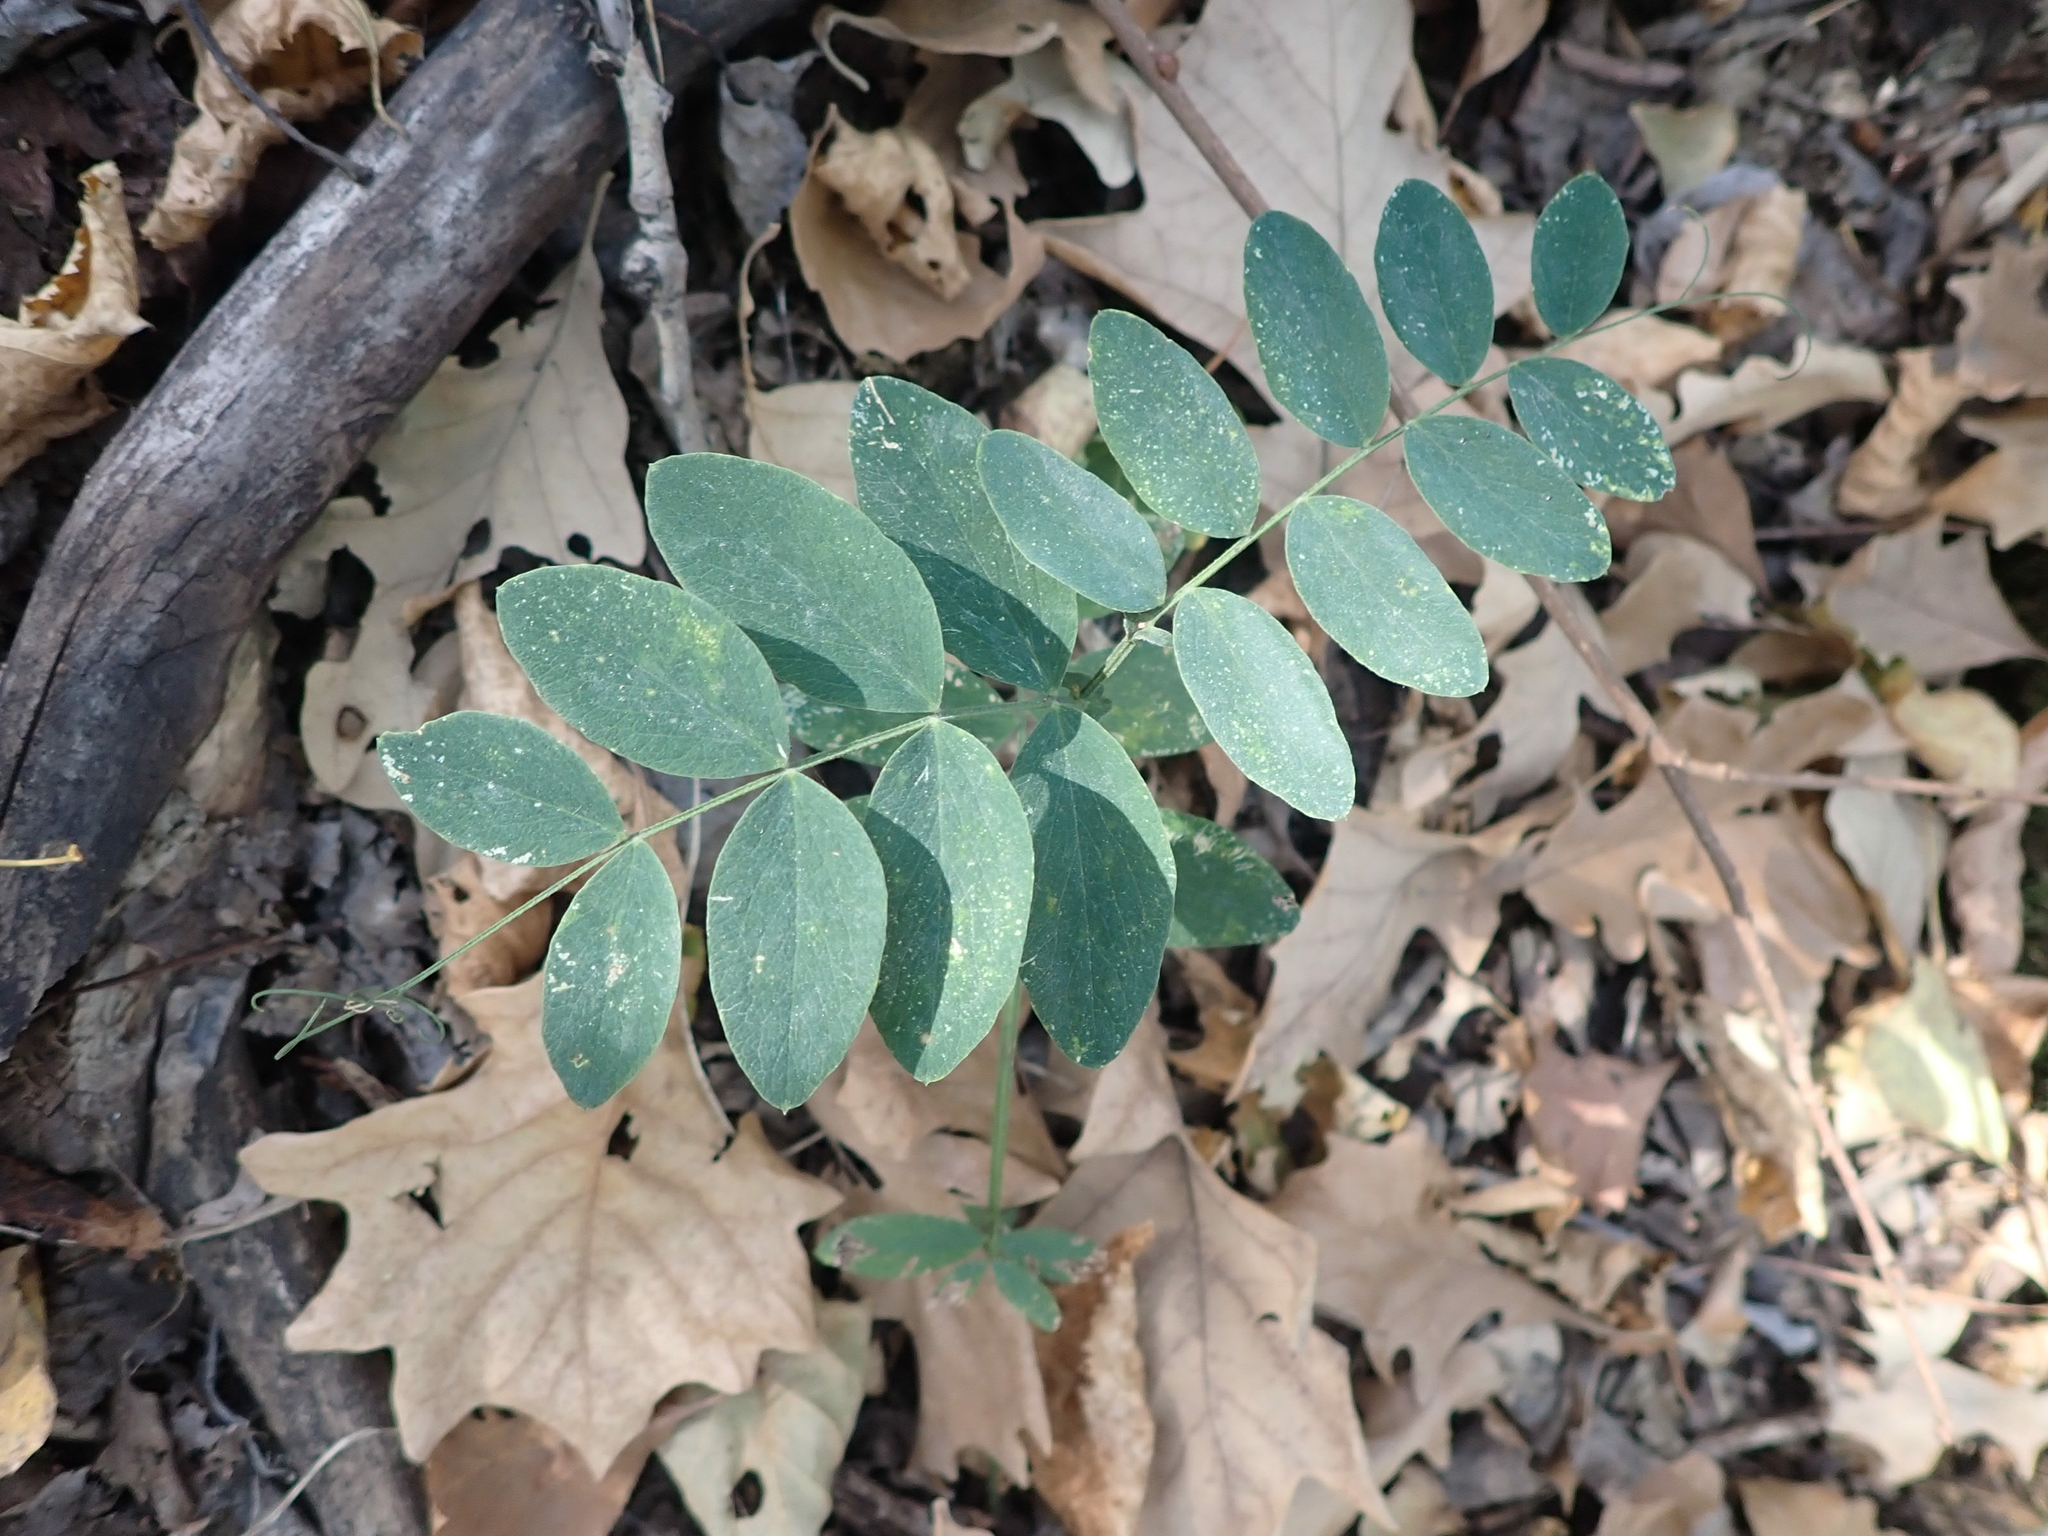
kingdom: Plantae
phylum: Tracheophyta
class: Magnoliopsida
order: Fabales
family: Fabaceae
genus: Lathyrus
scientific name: Lathyrus venosus
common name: Forest-pea
